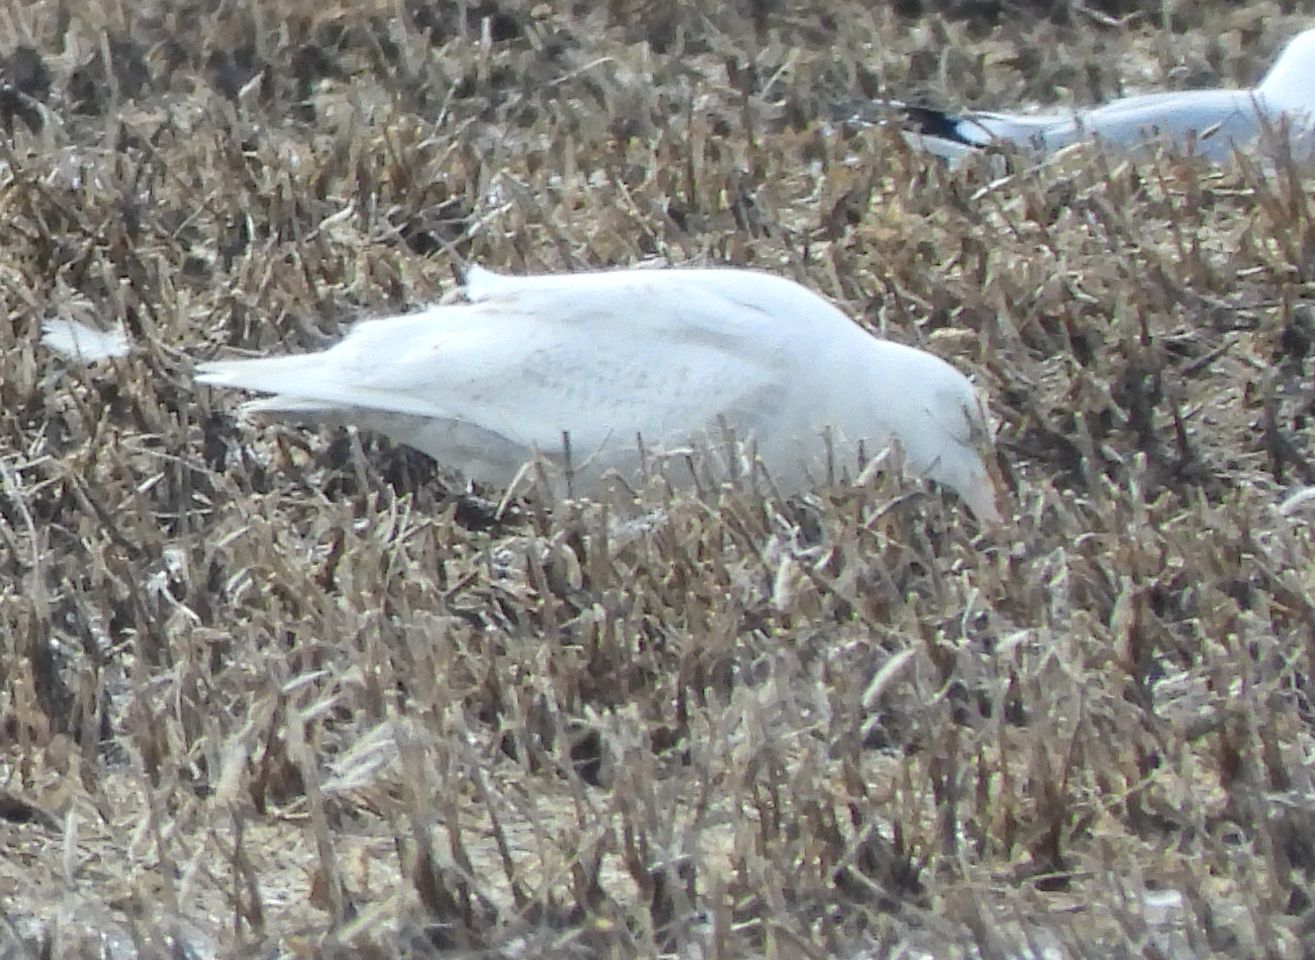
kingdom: Animalia
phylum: Chordata
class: Aves
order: Charadriiformes
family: Laridae
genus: Larus
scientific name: Larus hyperboreus
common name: Glaucous gull
